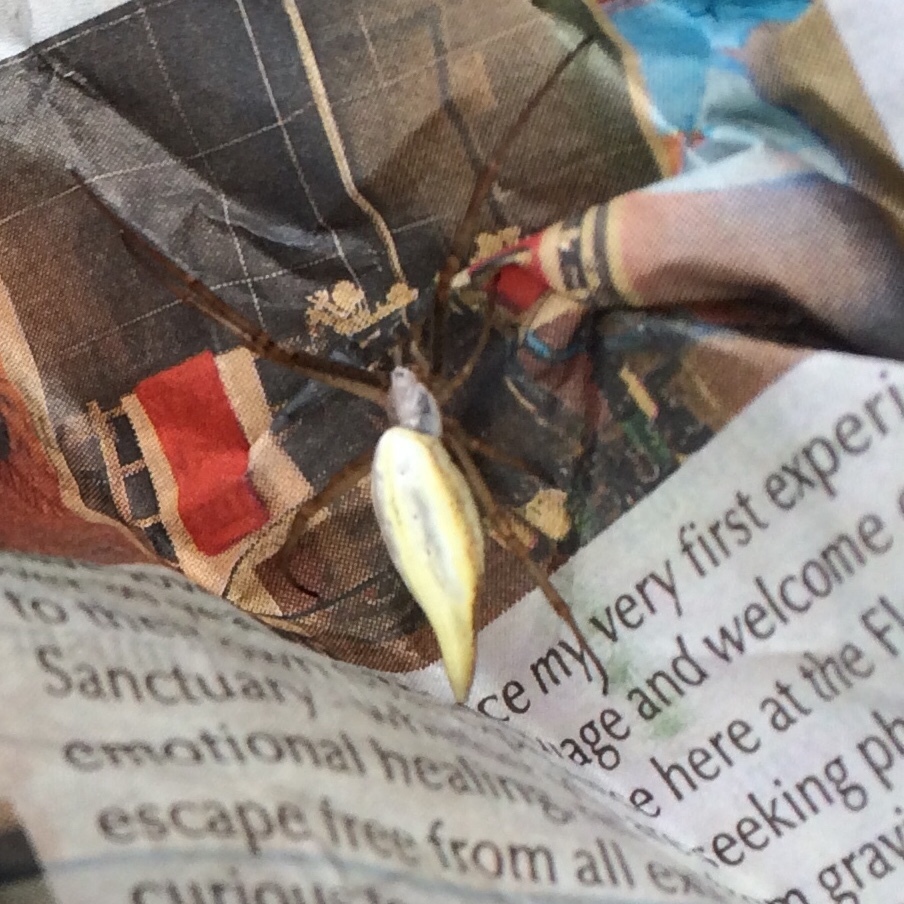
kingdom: Animalia
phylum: Arthropoda
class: Arachnida
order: Araneae
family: Araneidae
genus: Argiope
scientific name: Argiope protensa
